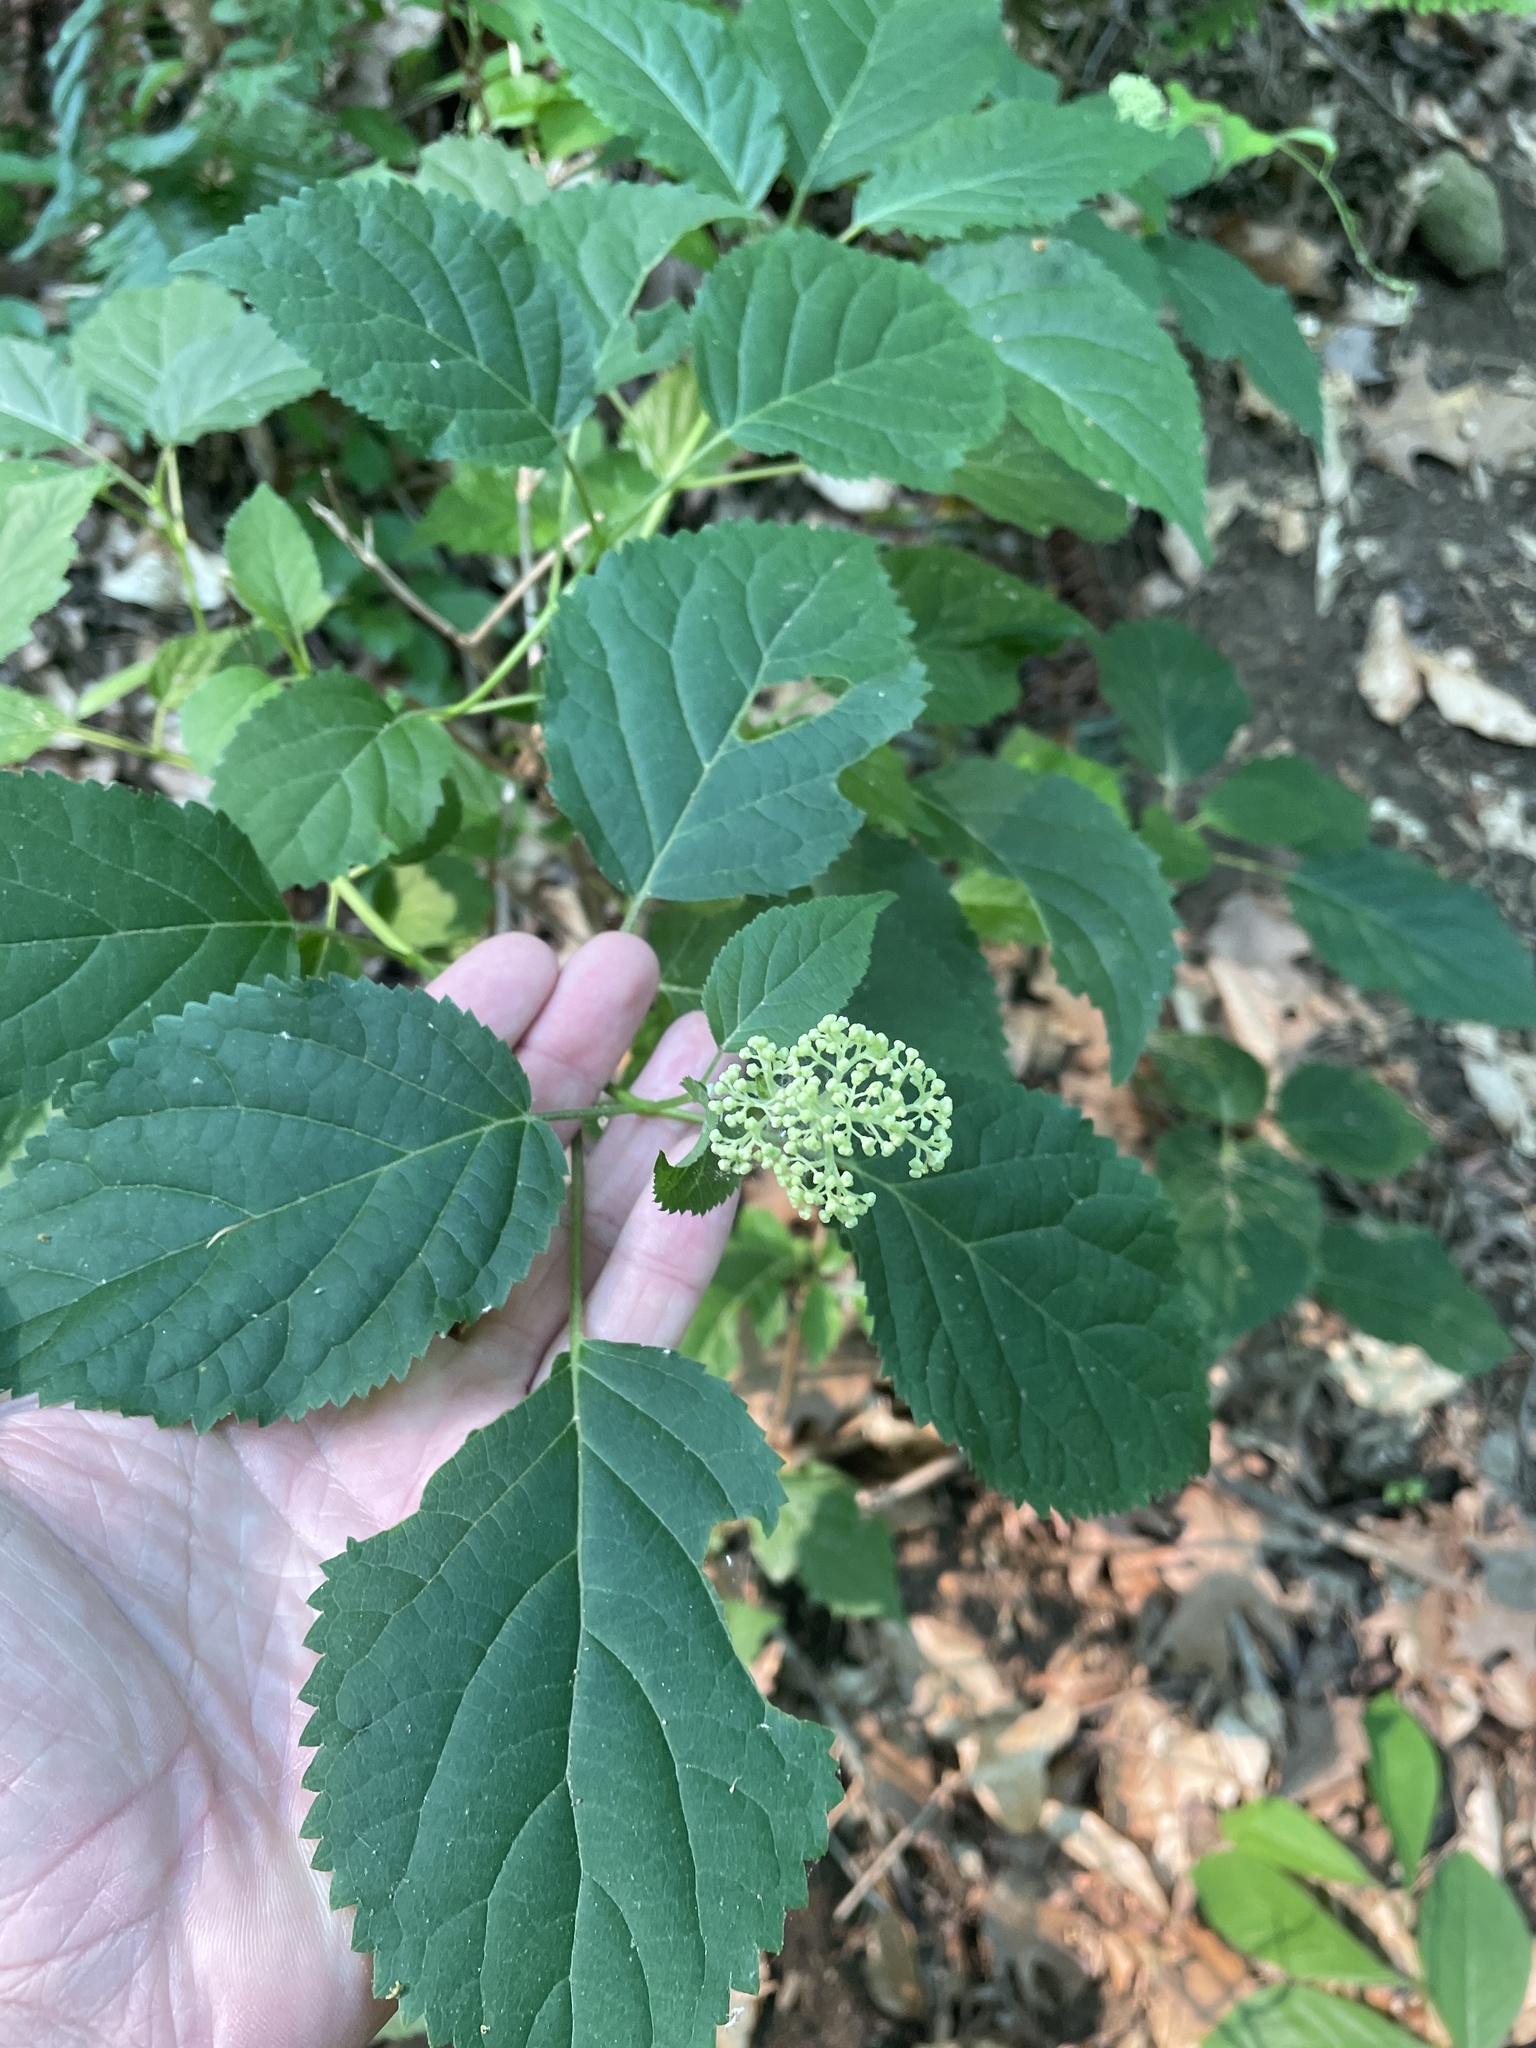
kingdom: Plantae
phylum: Tracheophyta
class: Magnoliopsida
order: Cornales
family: Hydrangeaceae
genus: Hydrangea
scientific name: Hydrangea arborescens
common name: Sevenbark
